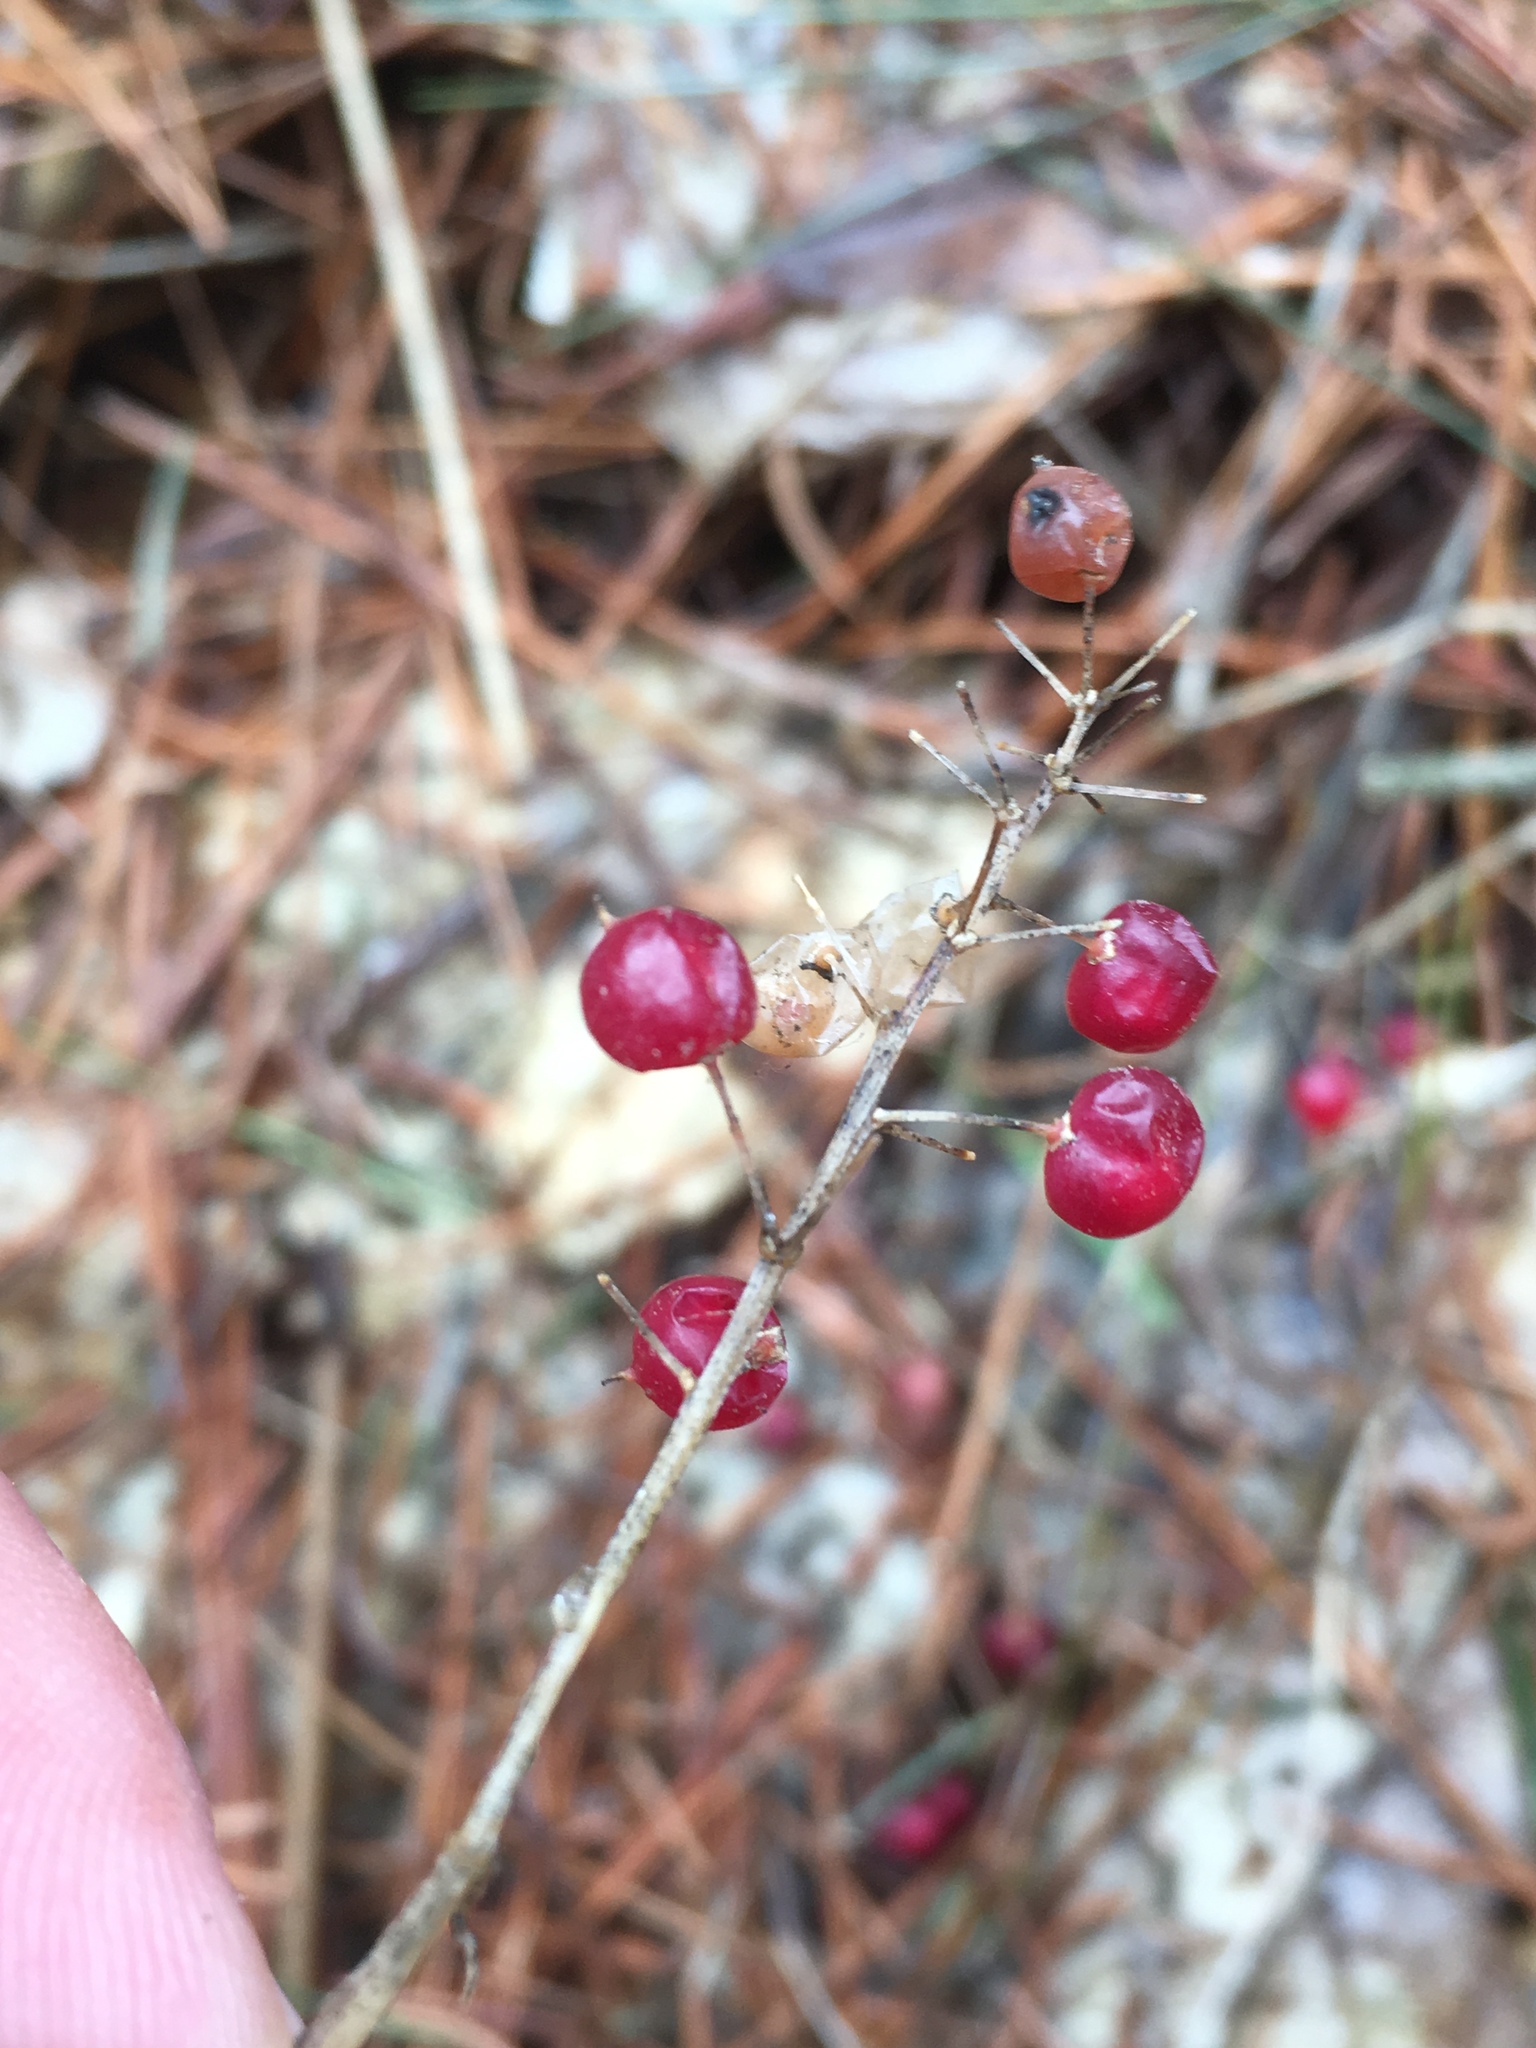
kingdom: Plantae
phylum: Tracheophyta
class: Liliopsida
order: Asparagales
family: Asparagaceae
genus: Maianthemum
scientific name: Maianthemum canadense
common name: False lily-of-the-valley
